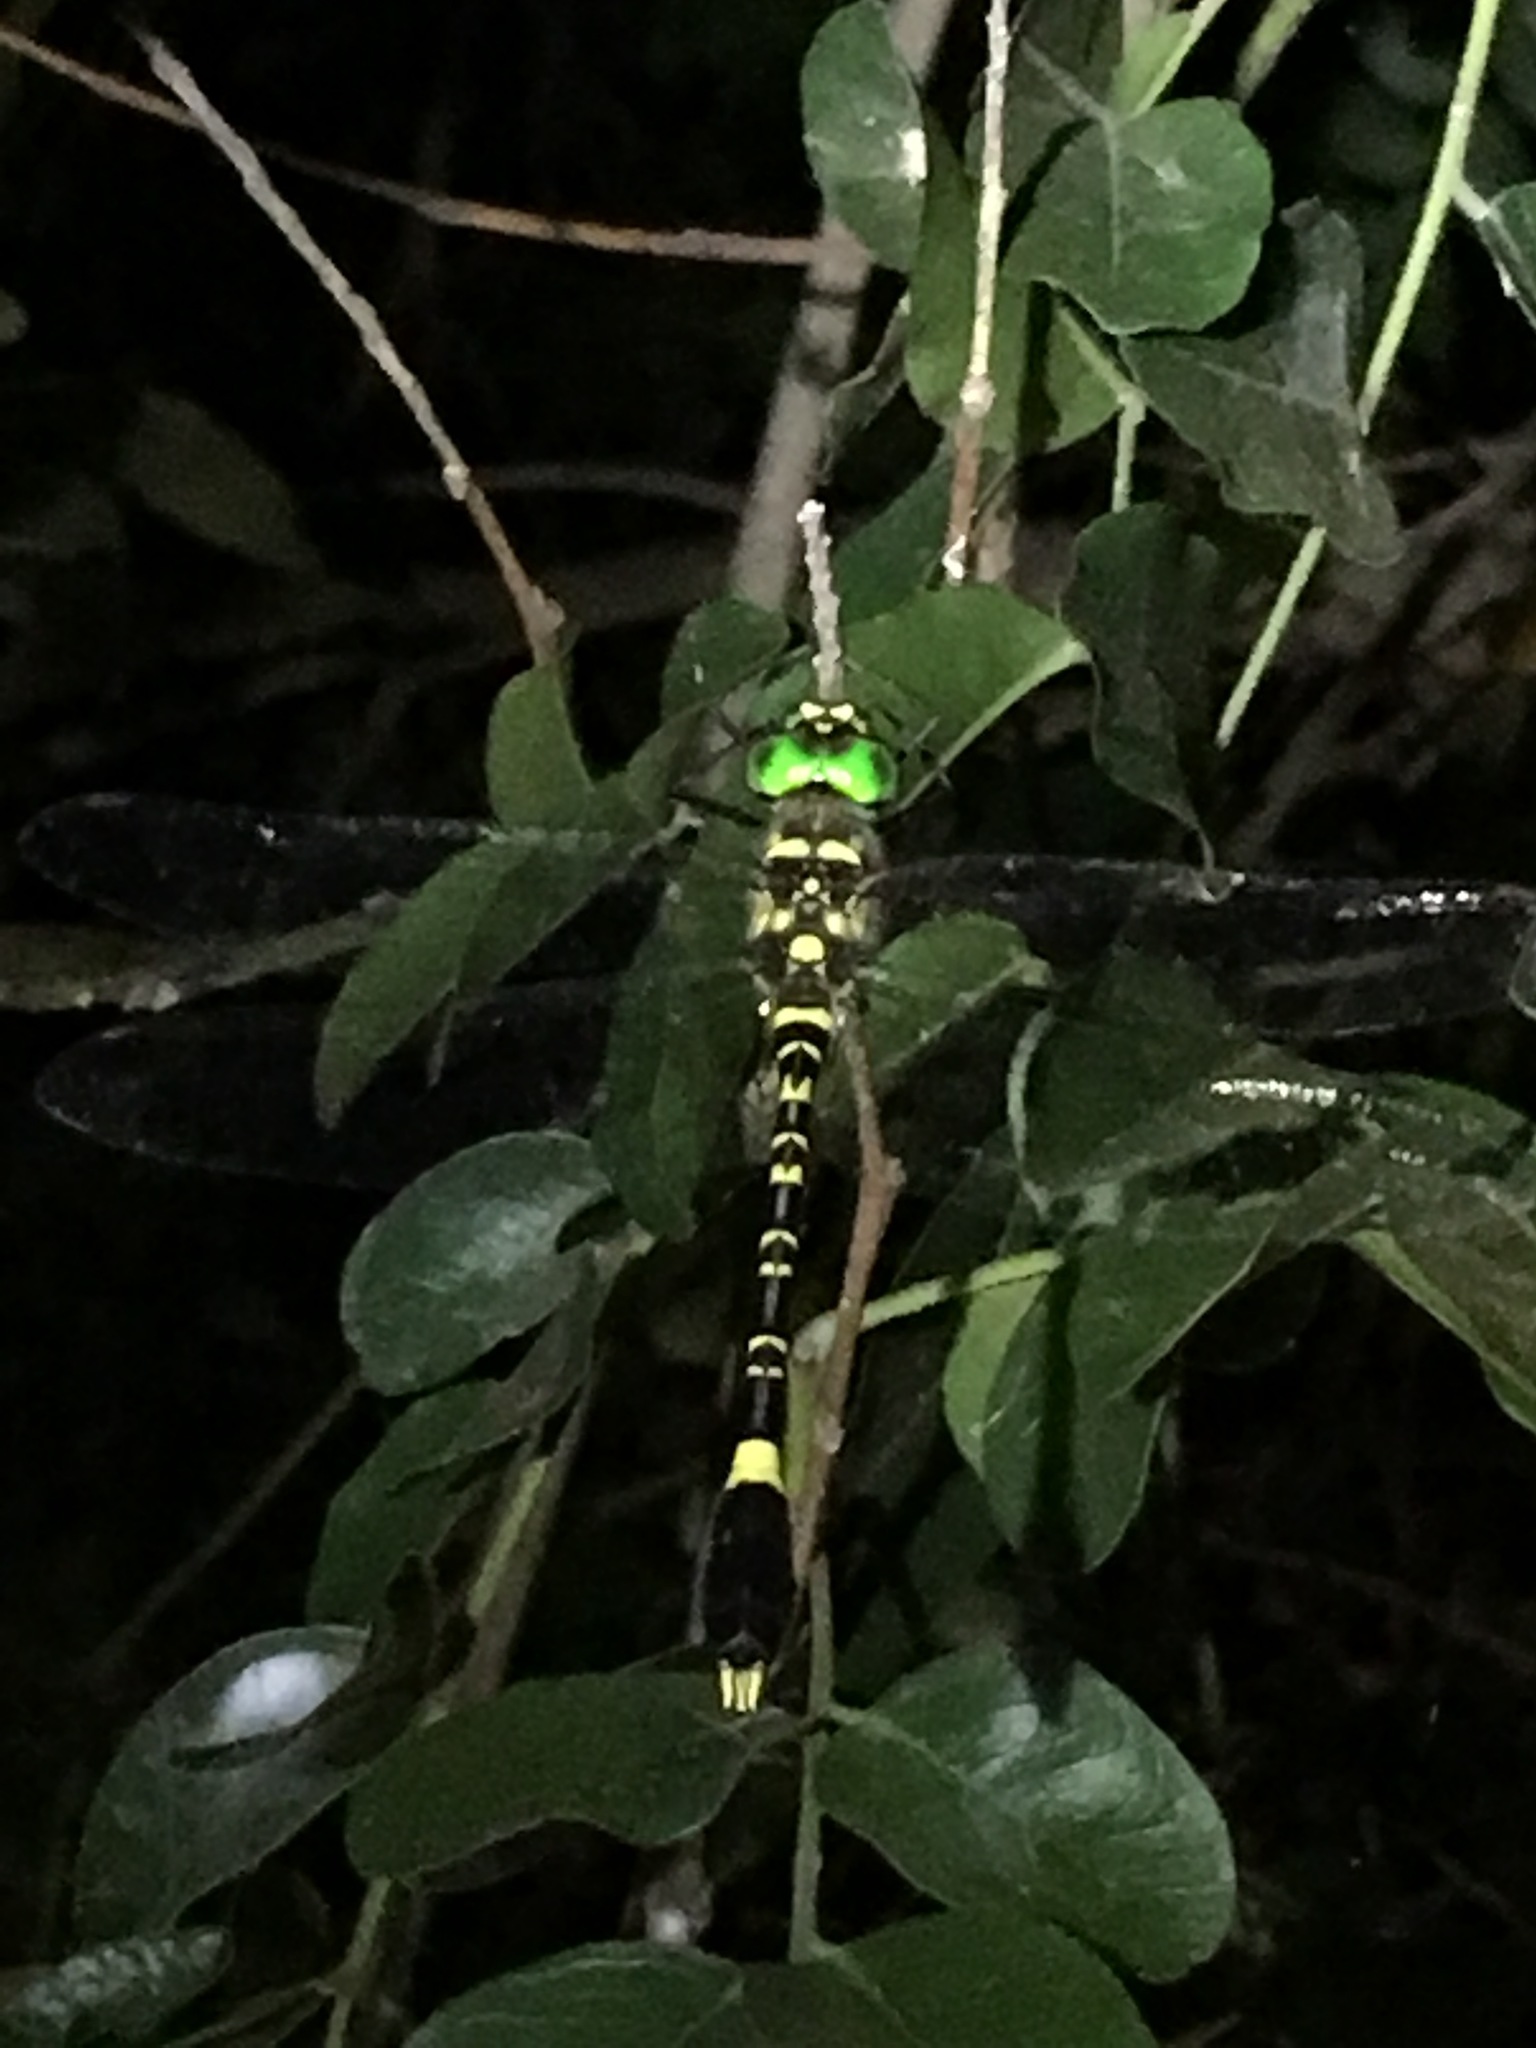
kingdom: Animalia
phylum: Arthropoda
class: Insecta
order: Odonata
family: Macromiidae
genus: Phyllomacromia
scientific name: Phyllomacromia picta
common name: Darting cruiser
